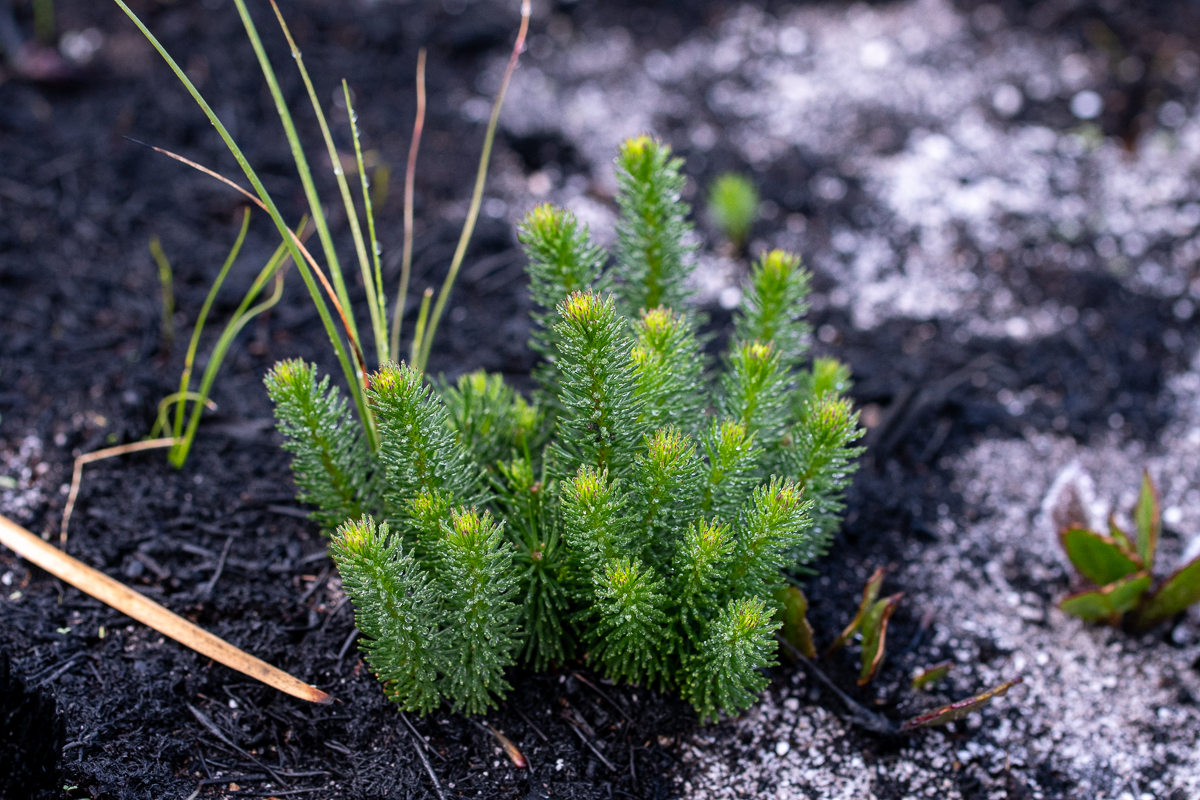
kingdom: Plantae
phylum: Tracheophyta
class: Magnoliopsida
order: Ericales
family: Ericaceae
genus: Erica
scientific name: Erica cerinthoides
